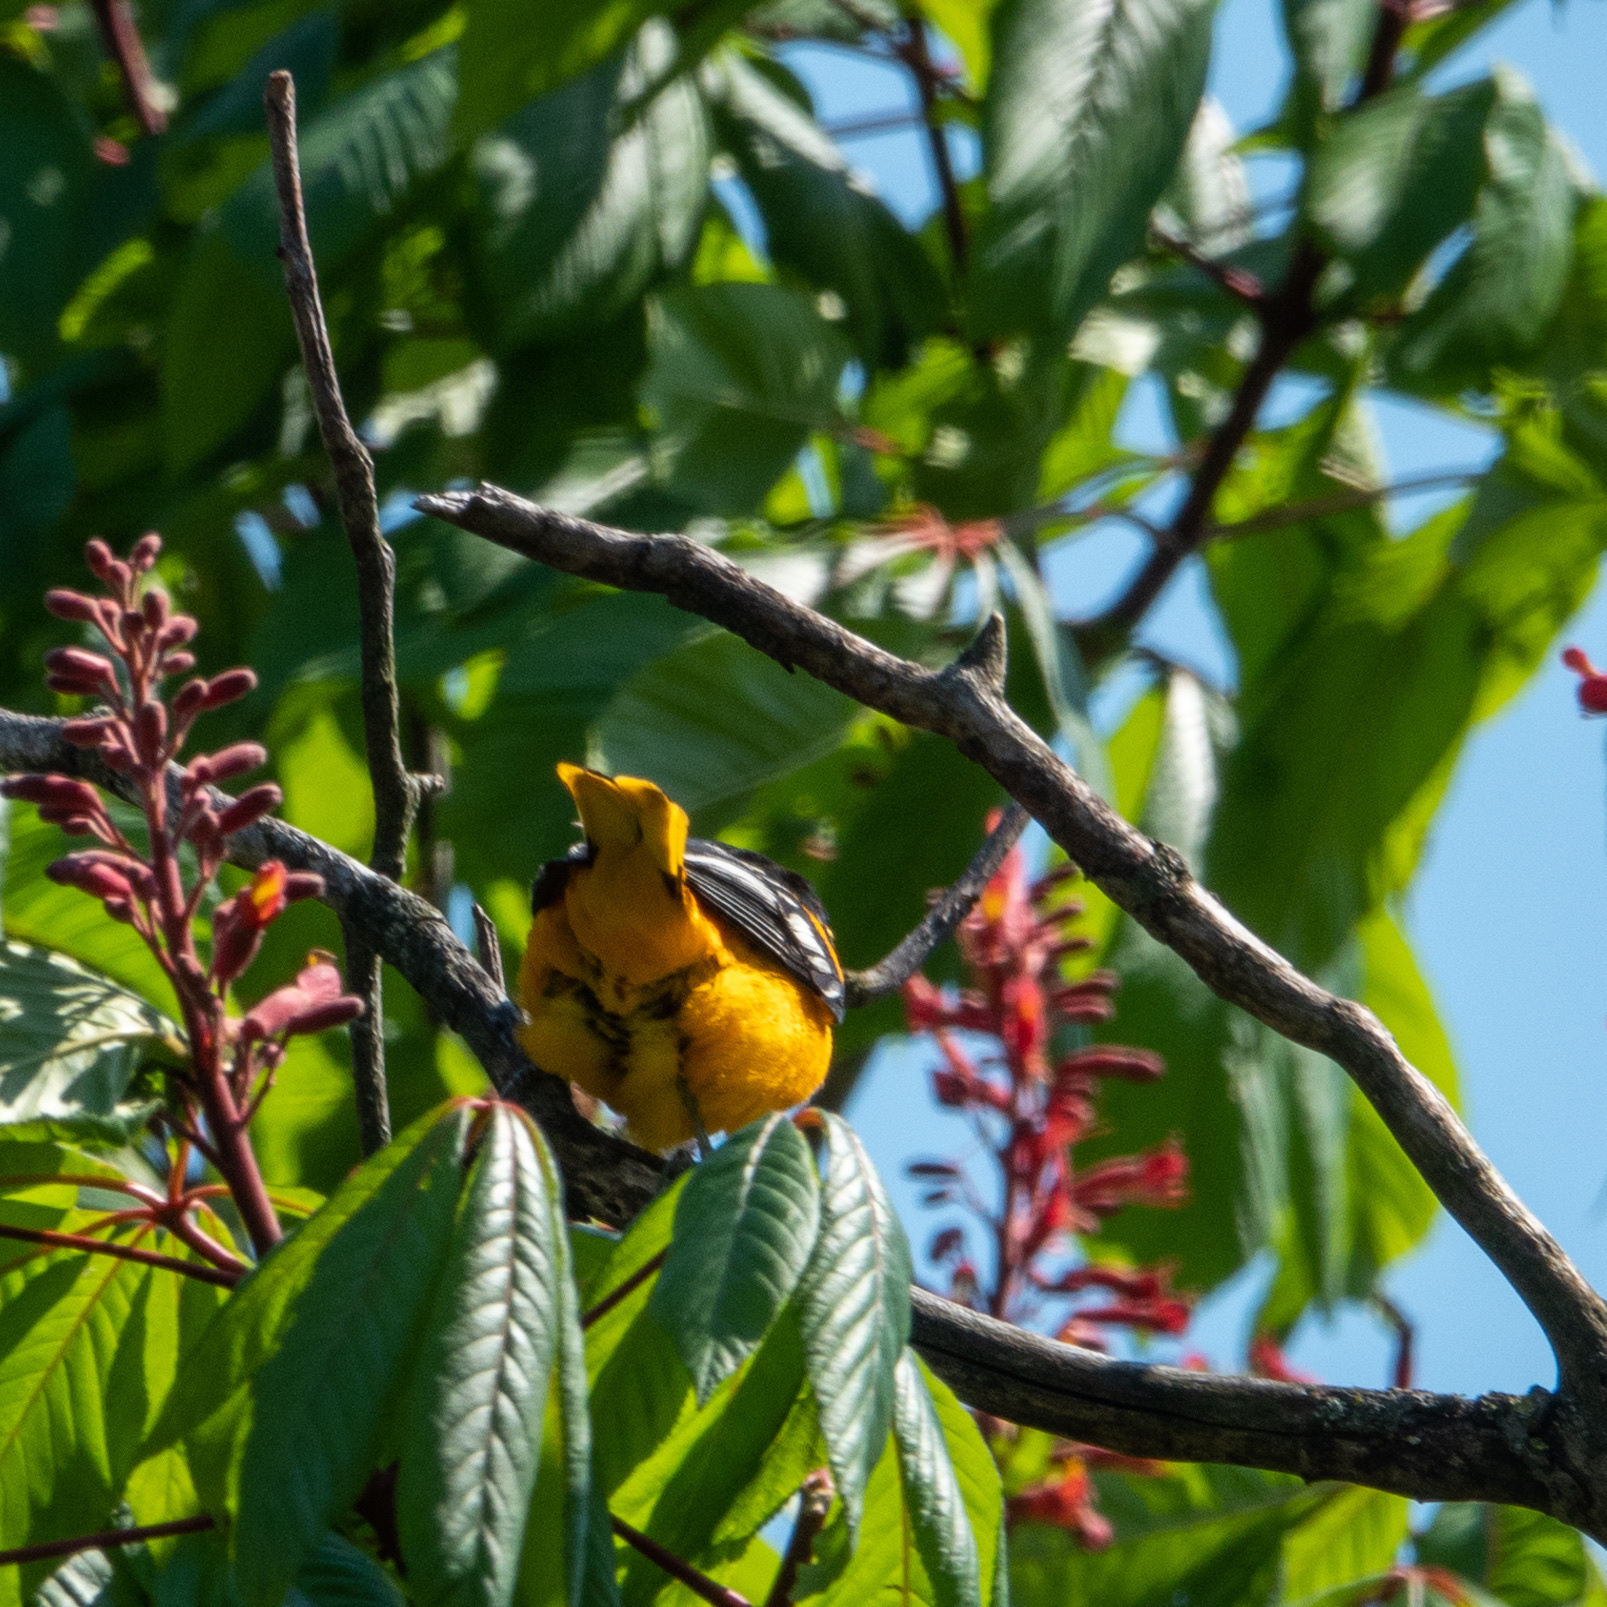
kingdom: Animalia
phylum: Chordata
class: Aves
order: Passeriformes
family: Icteridae
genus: Icterus
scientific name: Icterus galbula
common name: Baltimore oriole
